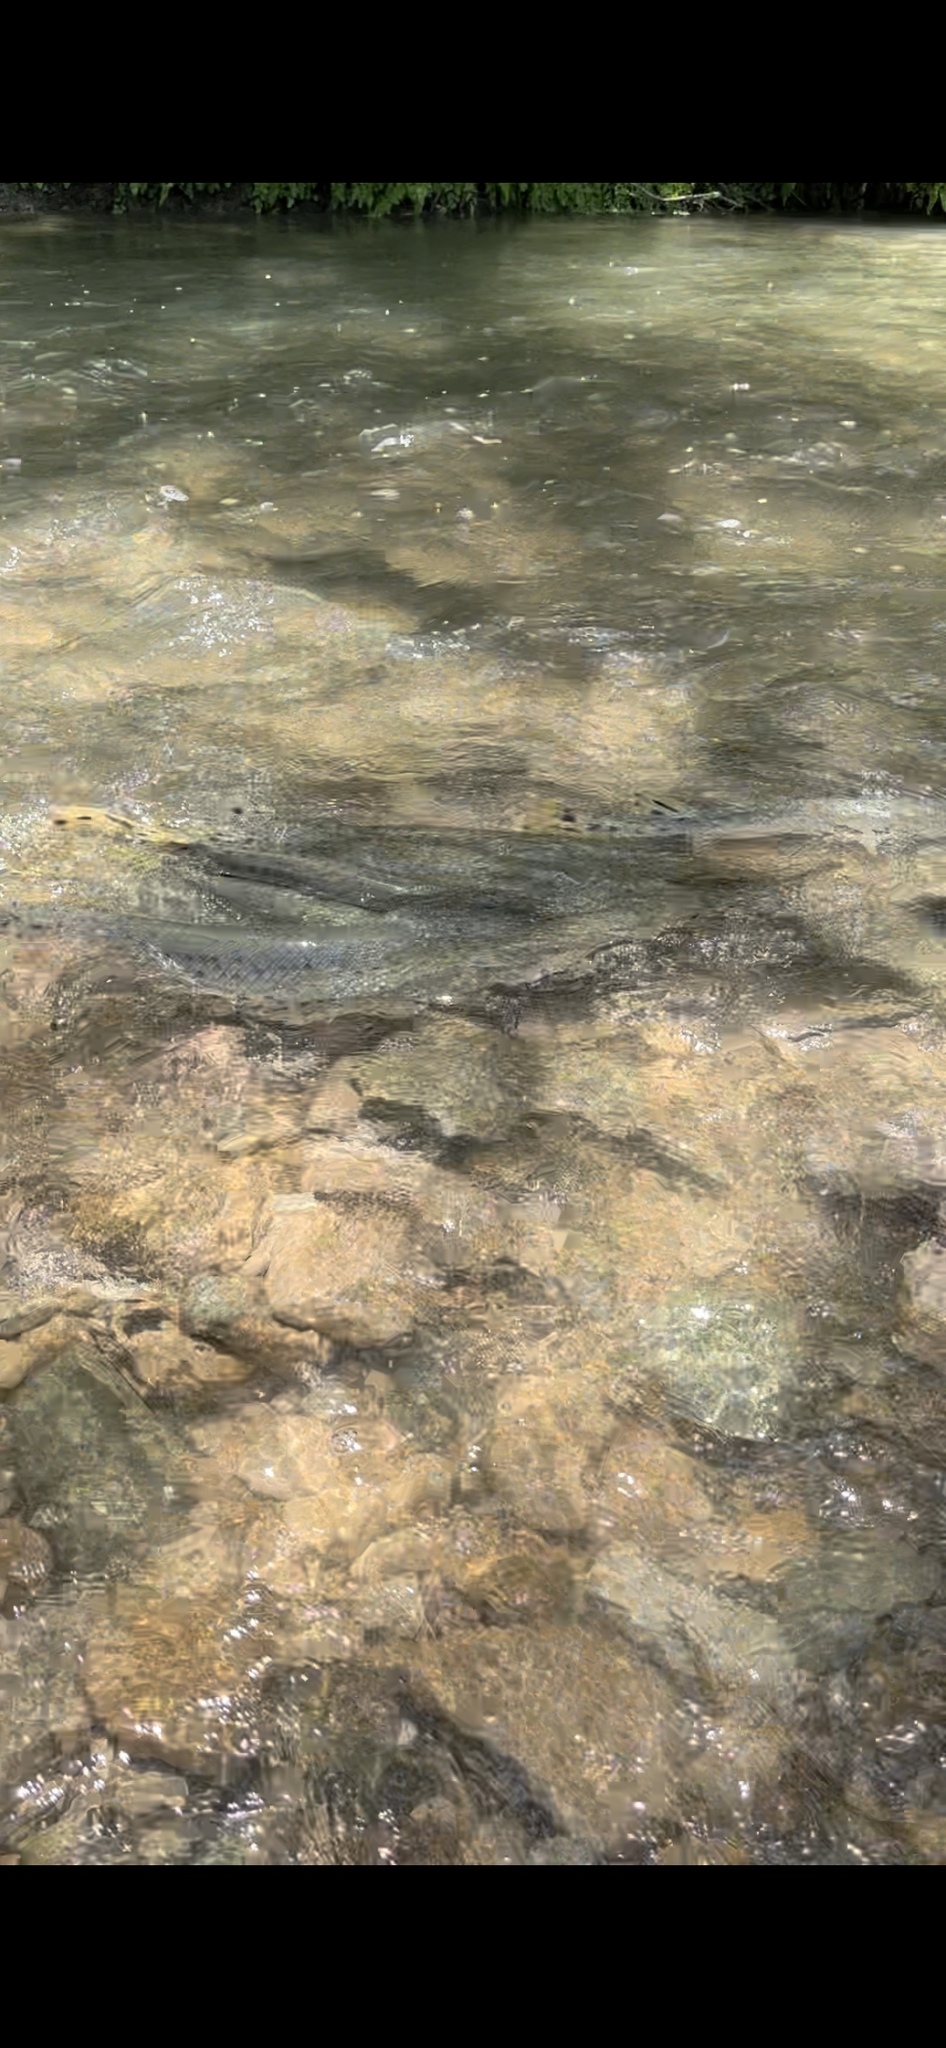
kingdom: Animalia
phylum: Chordata
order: Lepisosteiformes
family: Lepisosteidae
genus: Lepisosteus
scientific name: Lepisosteus osseus
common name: Longnose gar
